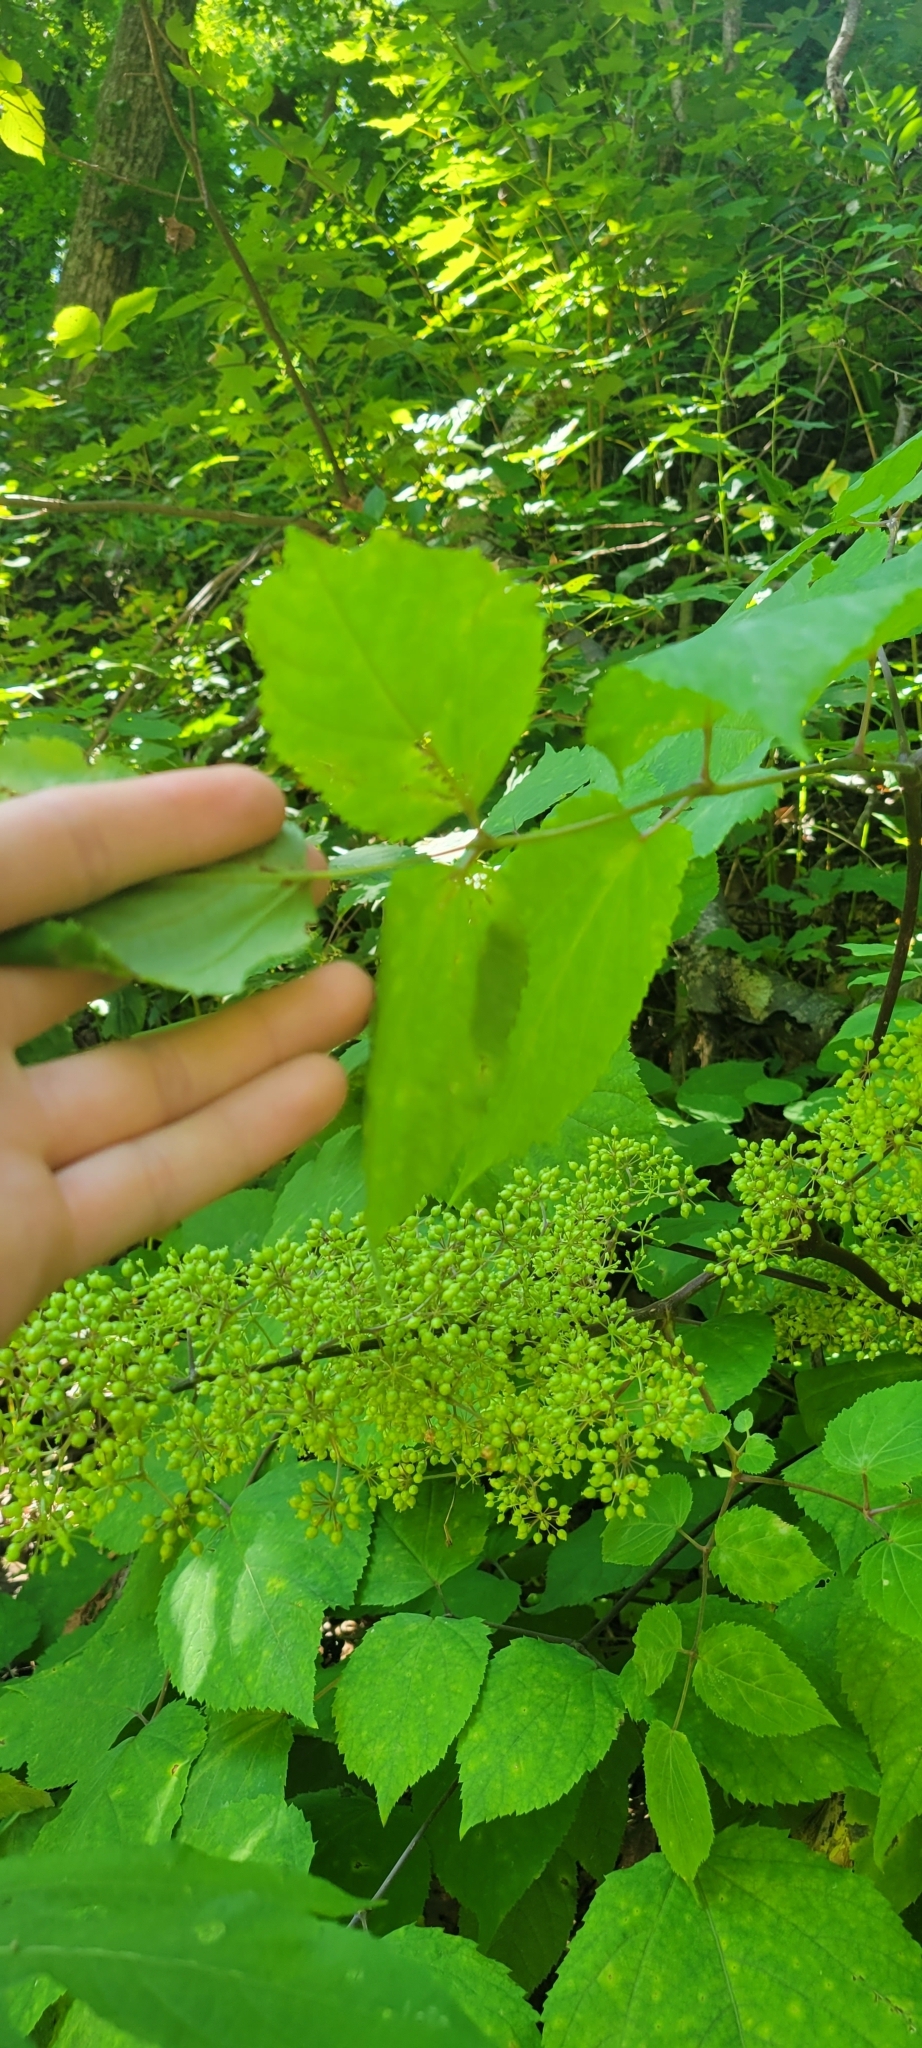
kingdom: Plantae
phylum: Tracheophyta
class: Magnoliopsida
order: Apiales
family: Araliaceae
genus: Aralia
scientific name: Aralia racemosa
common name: American-spikenard
